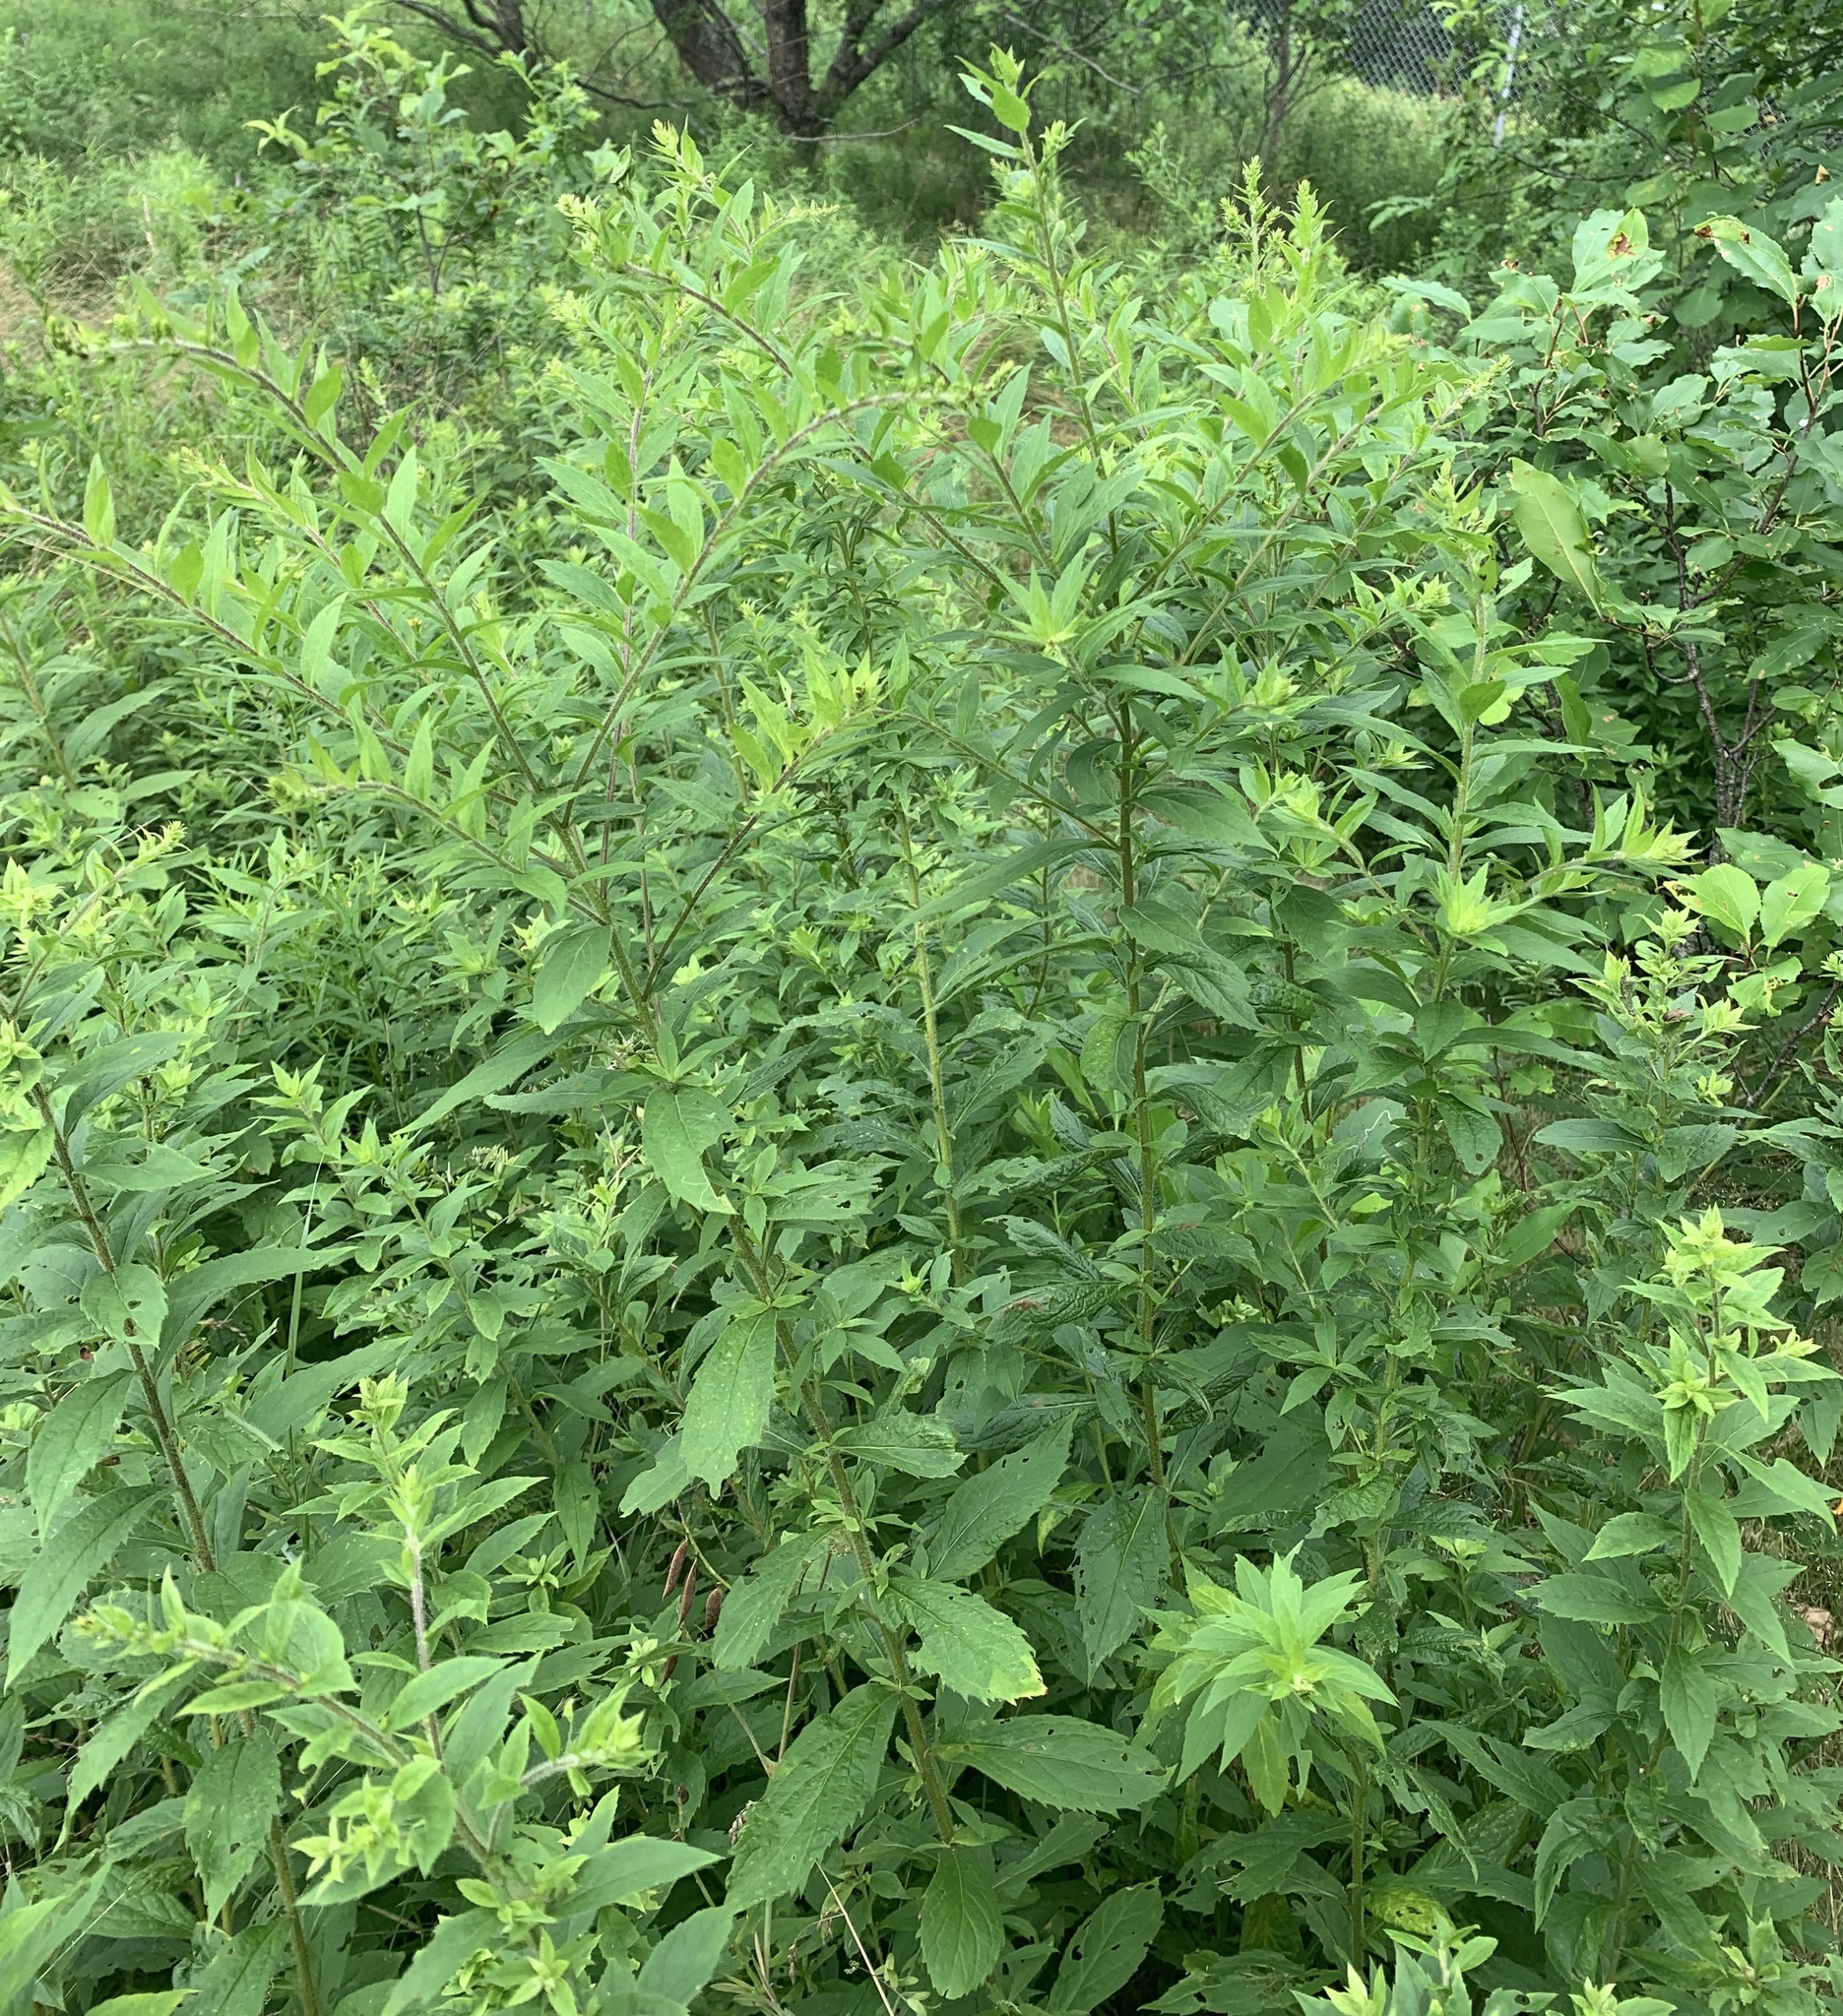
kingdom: Plantae
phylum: Tracheophyta
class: Magnoliopsida
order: Asterales
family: Asteraceae
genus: Solidago
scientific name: Solidago rugosa
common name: Rough-stemmed goldenrod
